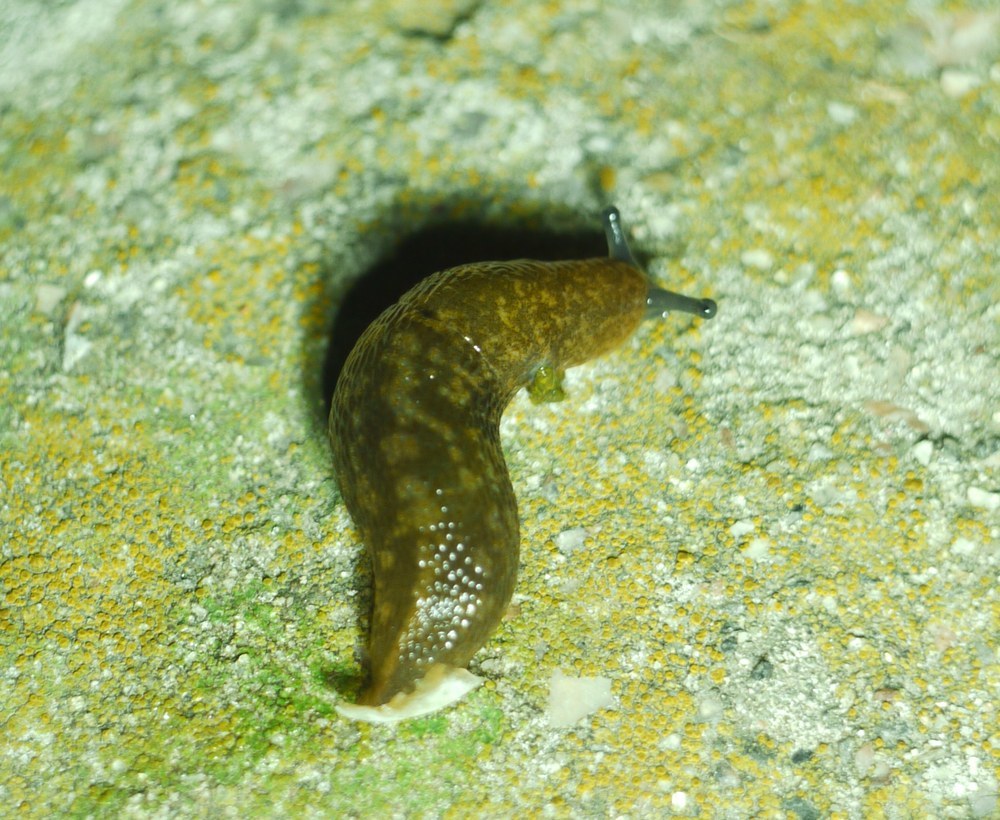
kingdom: Animalia
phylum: Mollusca
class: Gastropoda
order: Stylommatophora
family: Limacidae
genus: Limacus
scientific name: Limacus
